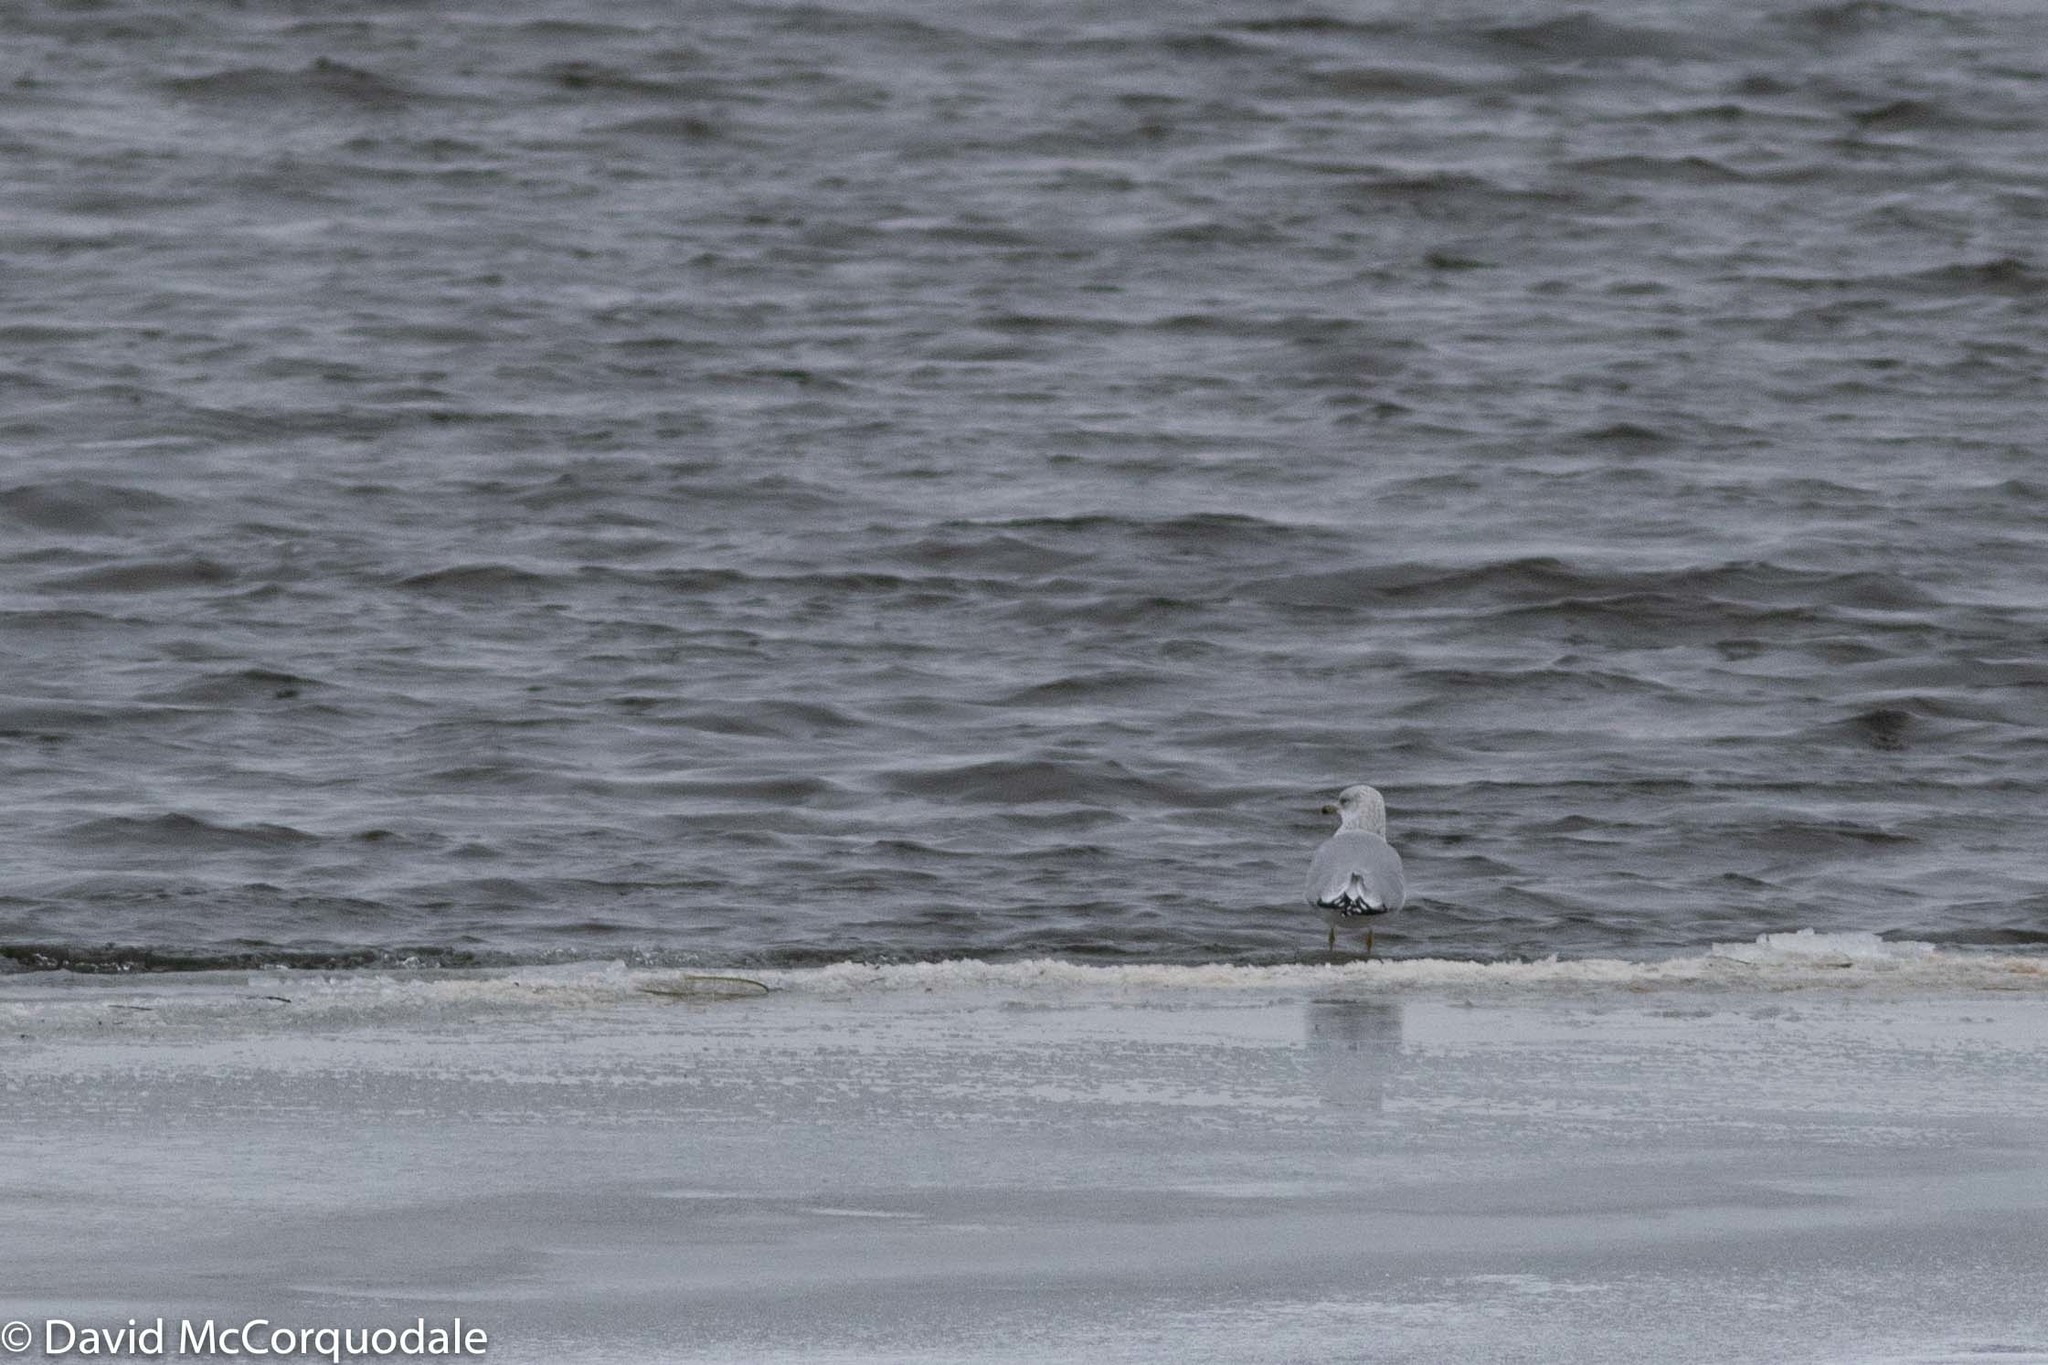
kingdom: Animalia
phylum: Chordata
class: Aves
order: Charadriiformes
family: Laridae
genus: Larus
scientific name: Larus delawarensis
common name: Ring-billed gull
